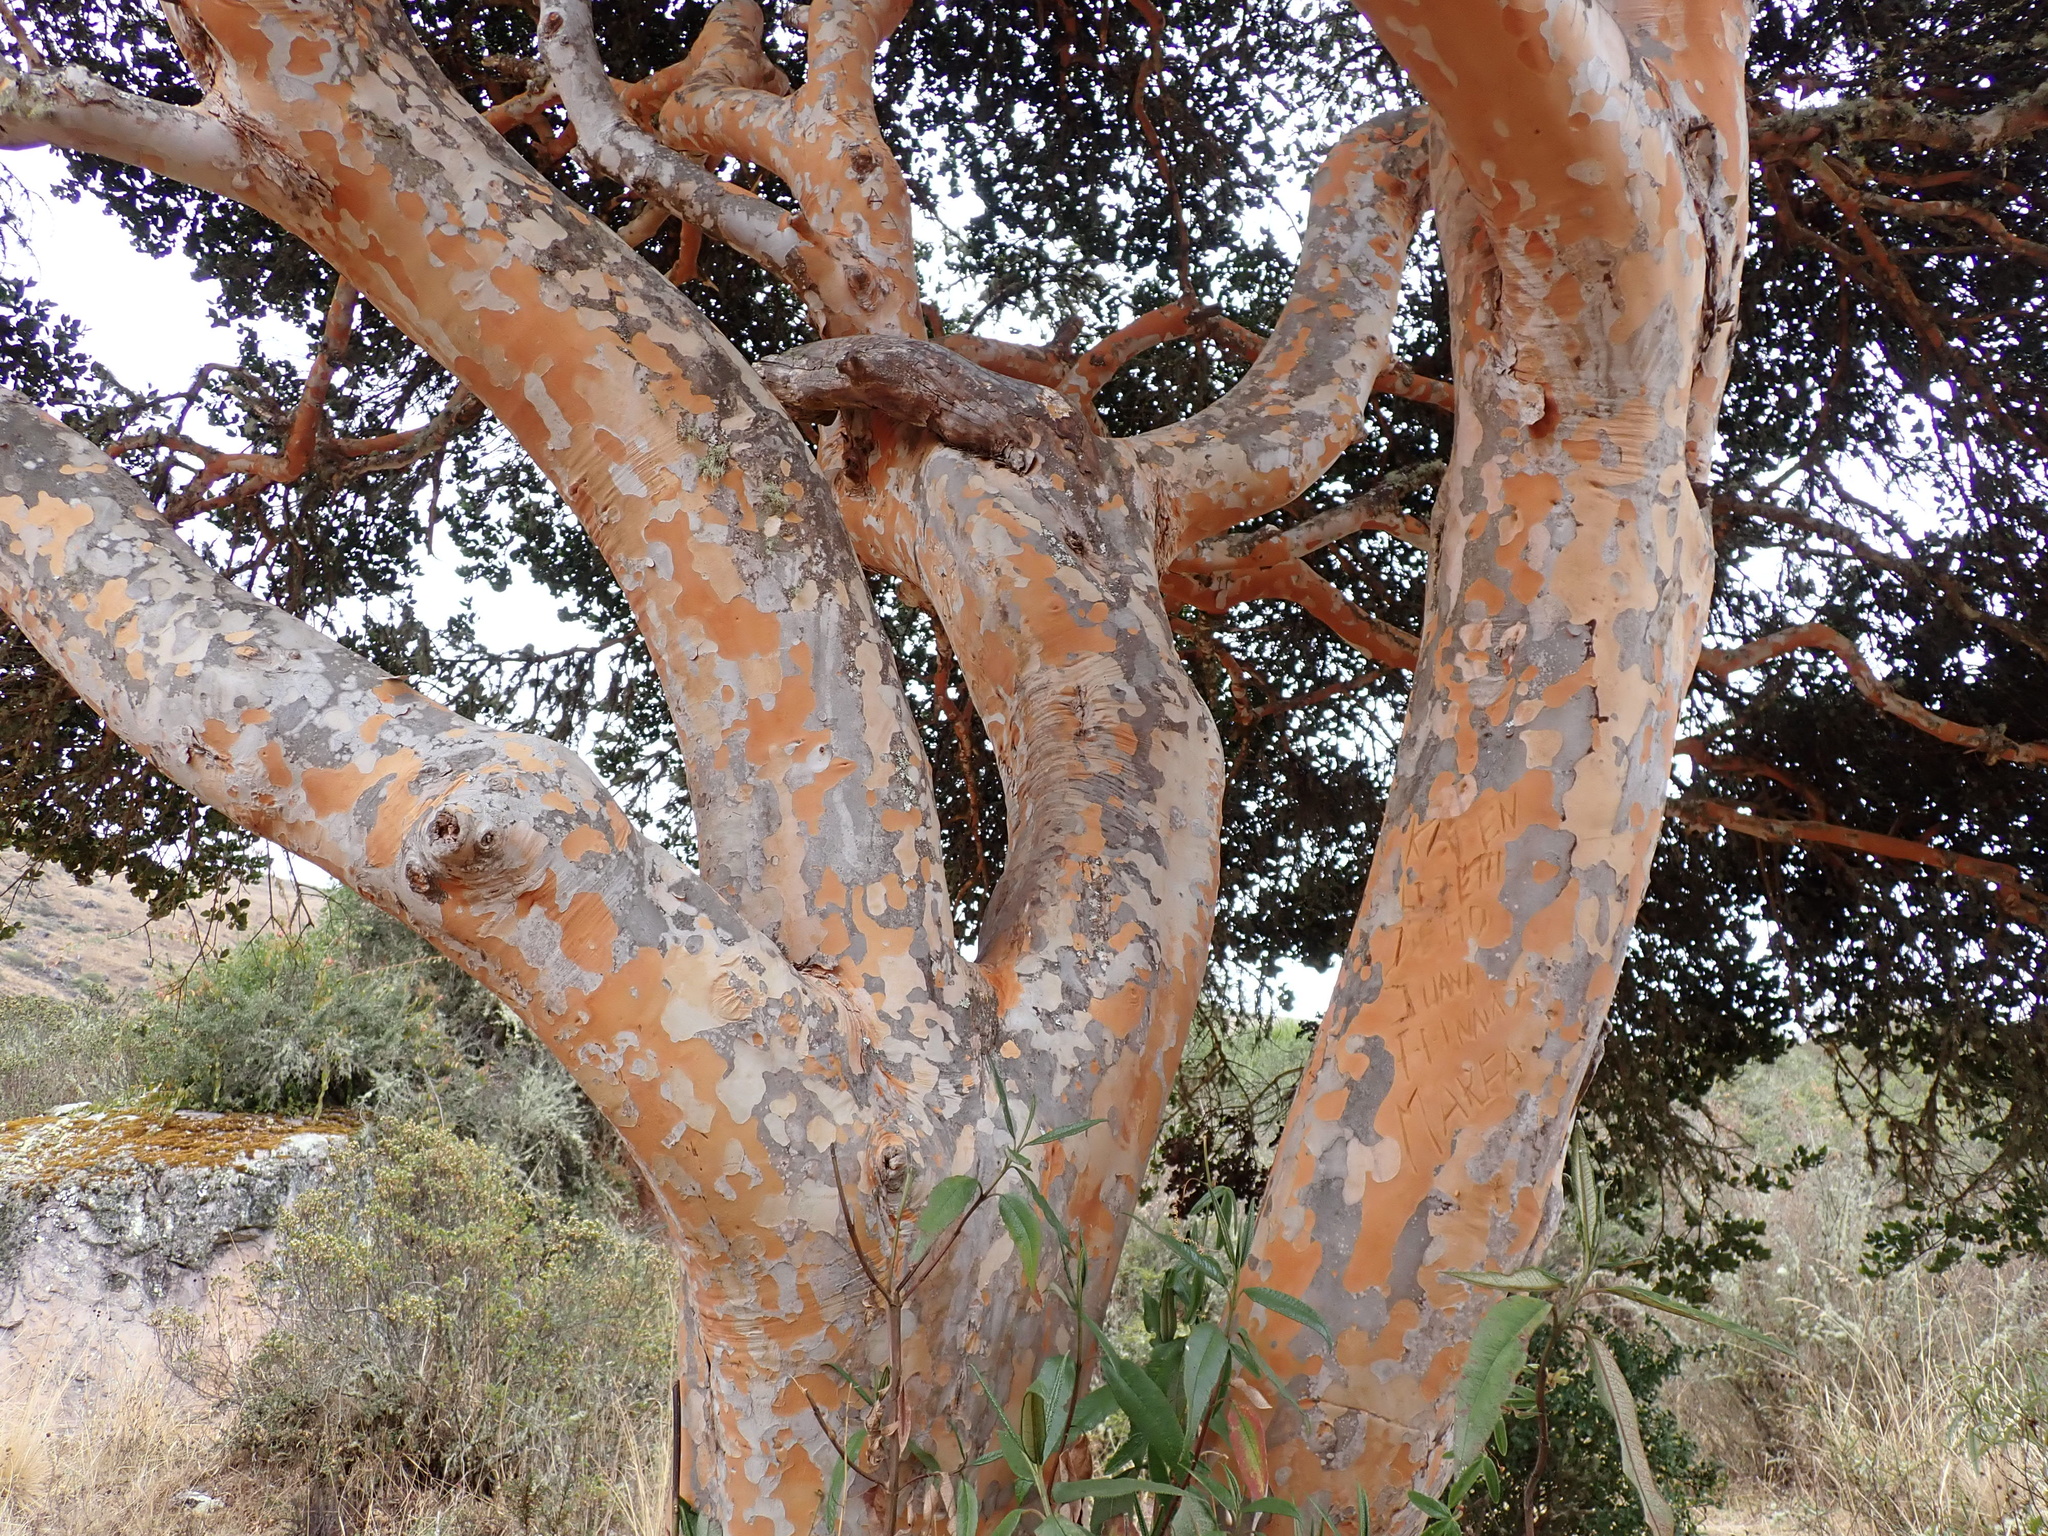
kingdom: Plantae
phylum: Tracheophyta
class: Magnoliopsida
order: Myrtales
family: Myrtaceae
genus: Myrcianthes
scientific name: Myrcianthes oreophila
